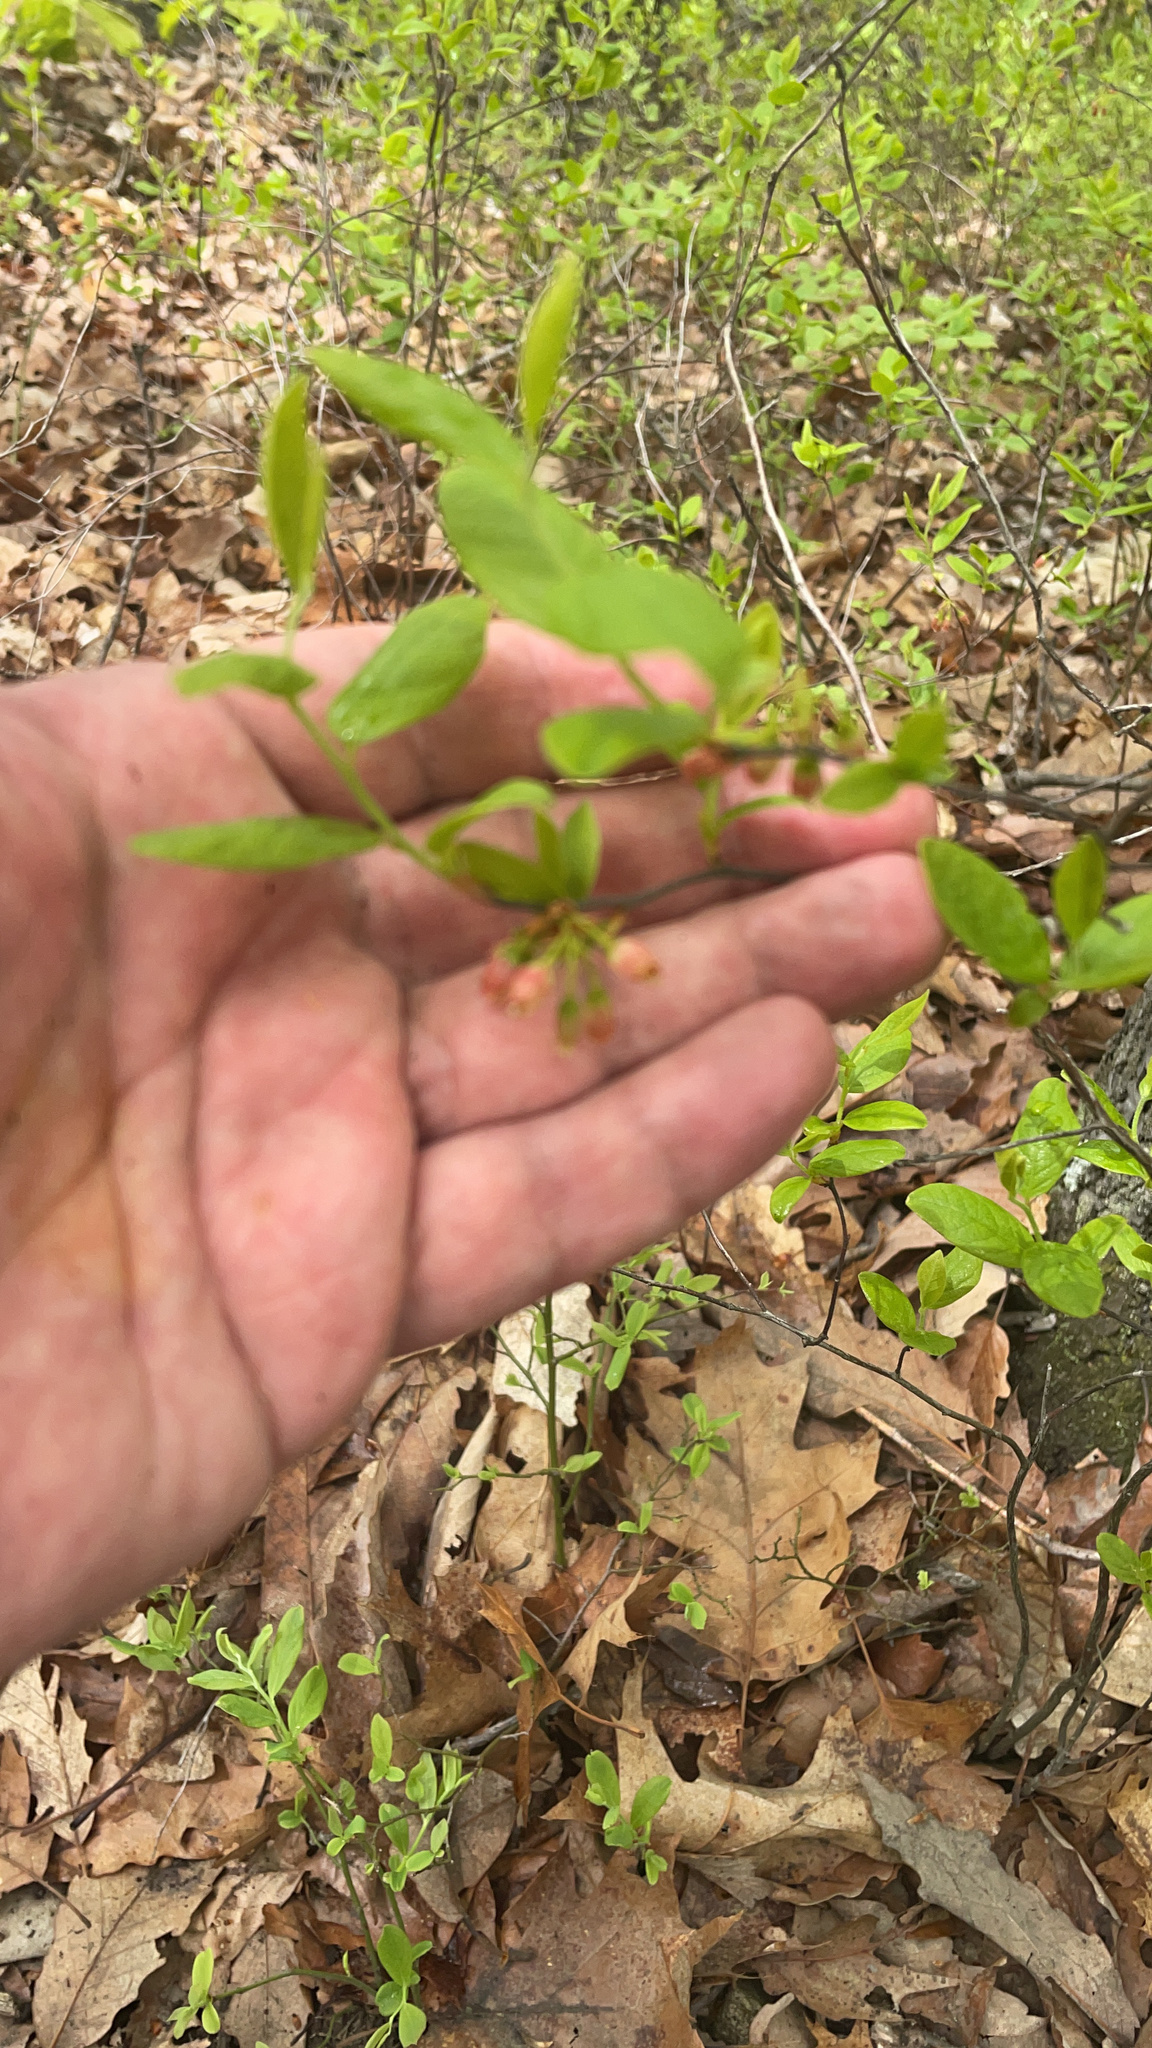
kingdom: Plantae
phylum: Tracheophyta
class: Magnoliopsida
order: Ericales
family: Ericaceae
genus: Gaylussacia
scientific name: Gaylussacia baccata
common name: Black huckleberry
